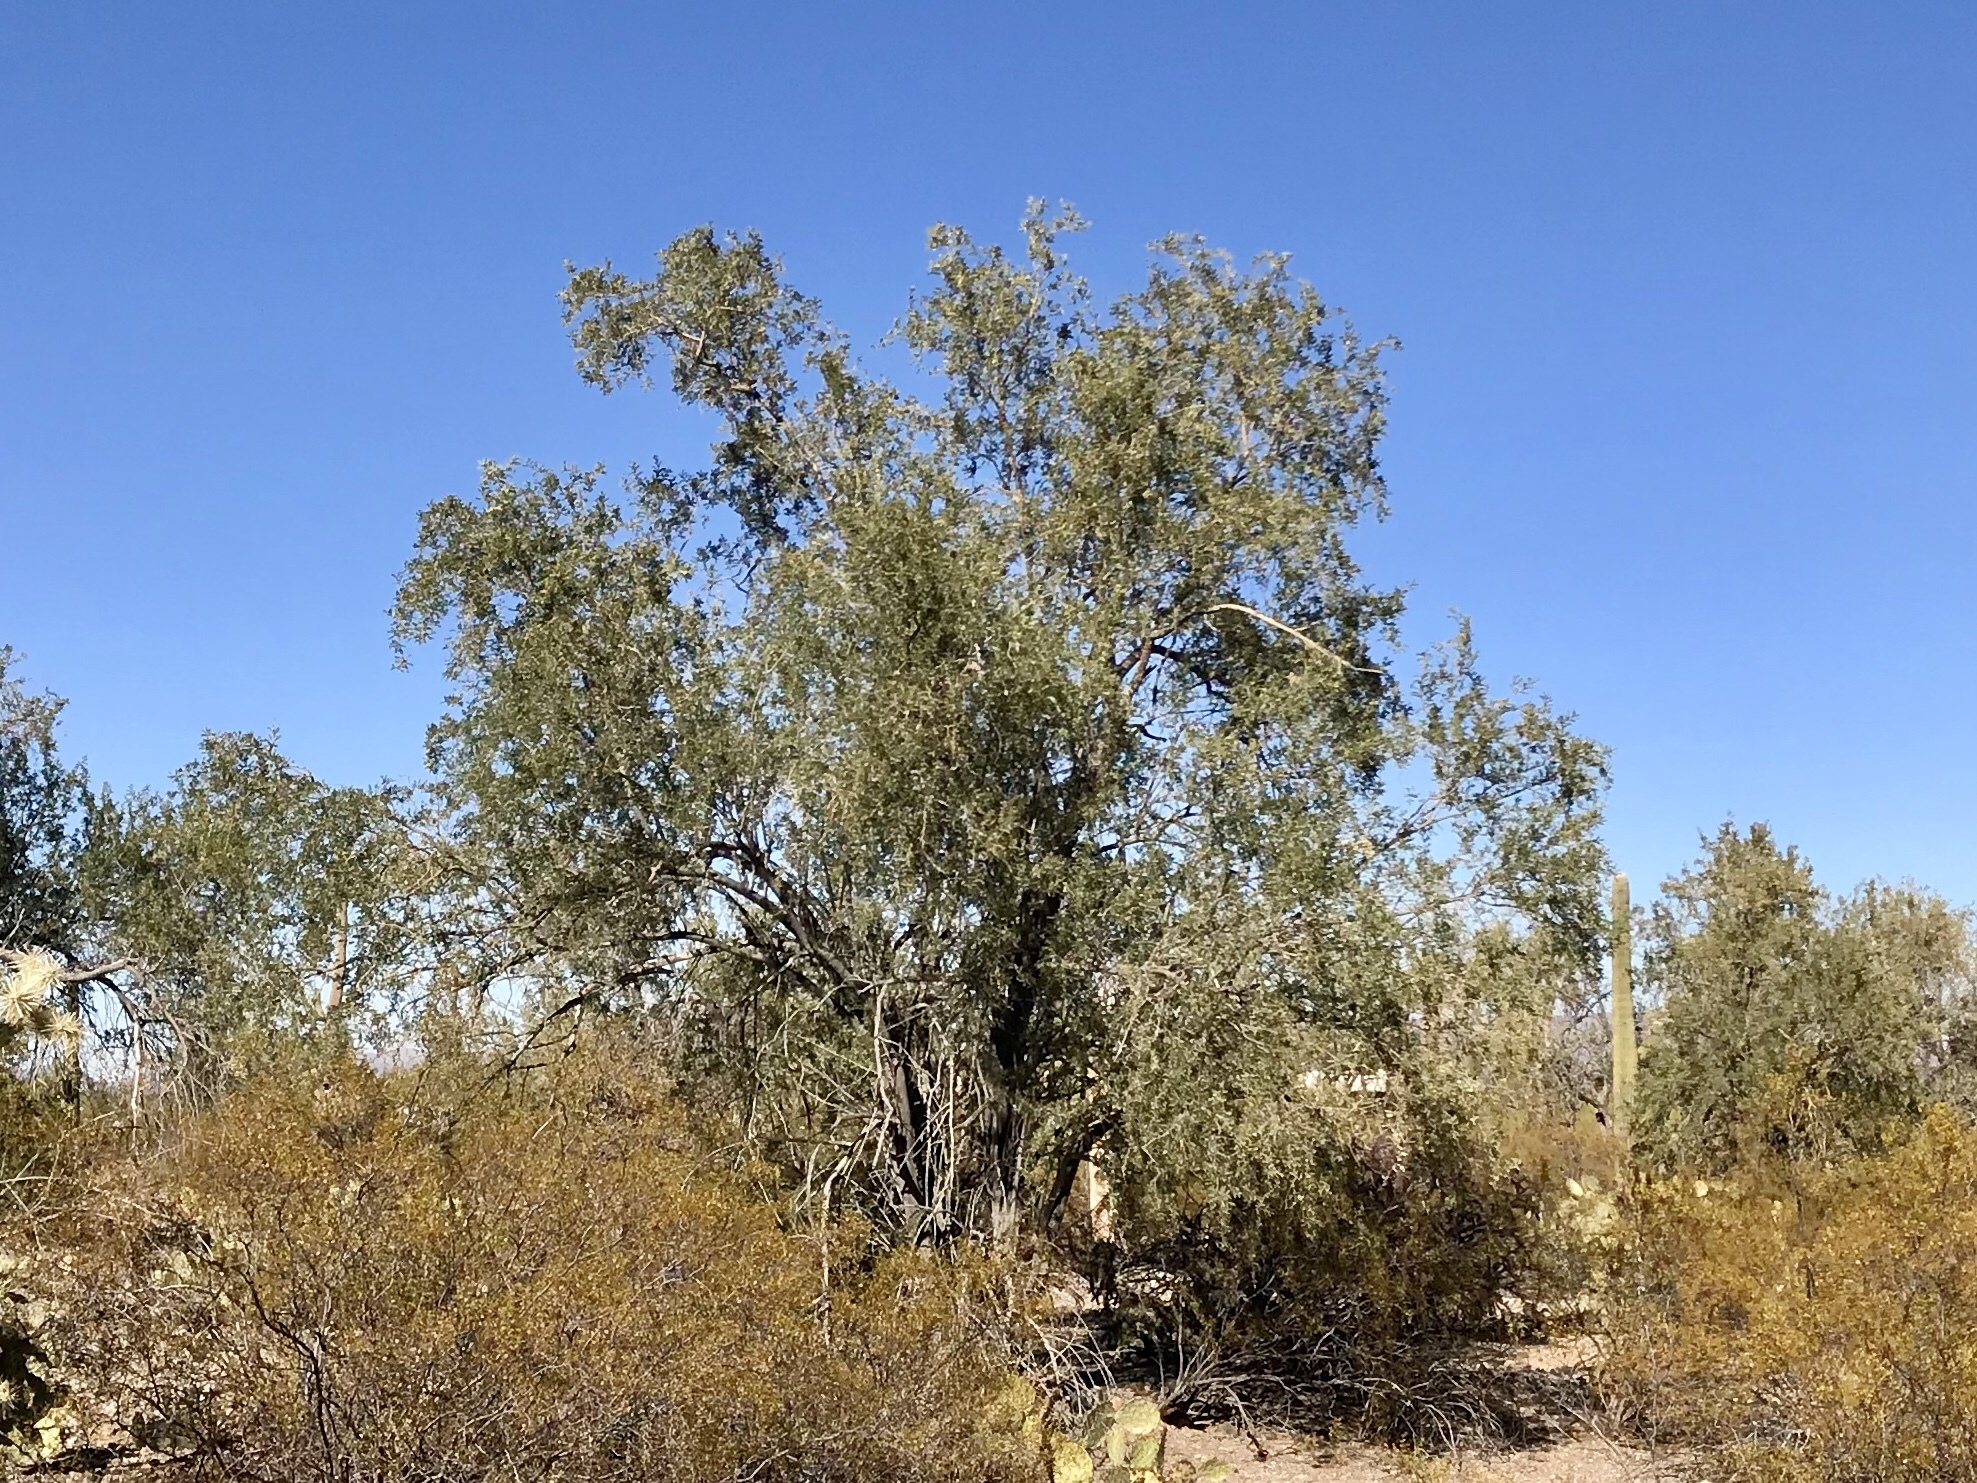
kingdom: Plantae
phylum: Tracheophyta
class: Magnoliopsida
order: Fabales
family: Fabaceae
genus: Olneya
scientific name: Olneya tesota
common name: Desert ironwood
